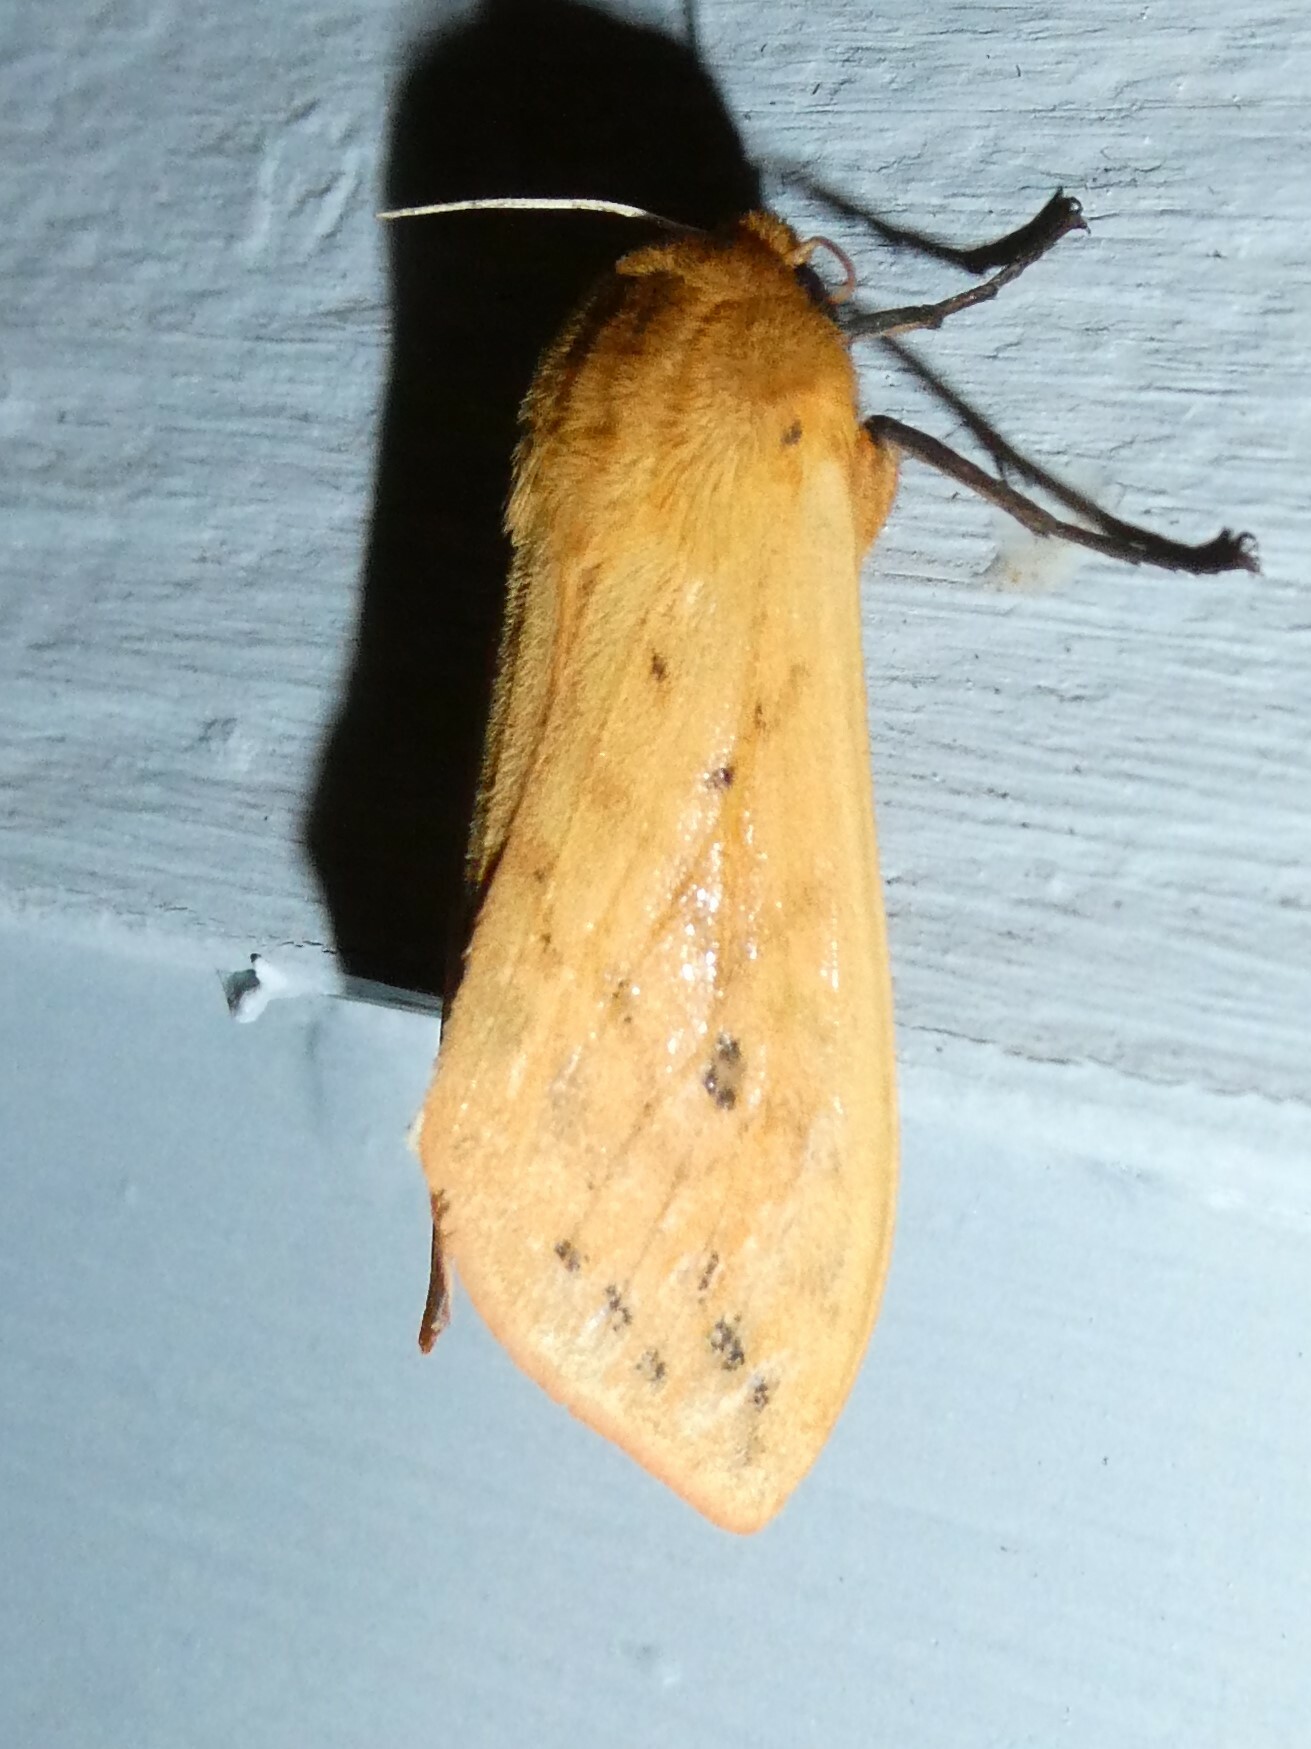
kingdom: Animalia
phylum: Arthropoda
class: Insecta
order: Lepidoptera
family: Erebidae
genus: Pyrrharctia
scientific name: Pyrrharctia isabella
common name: Isabella tiger moth
